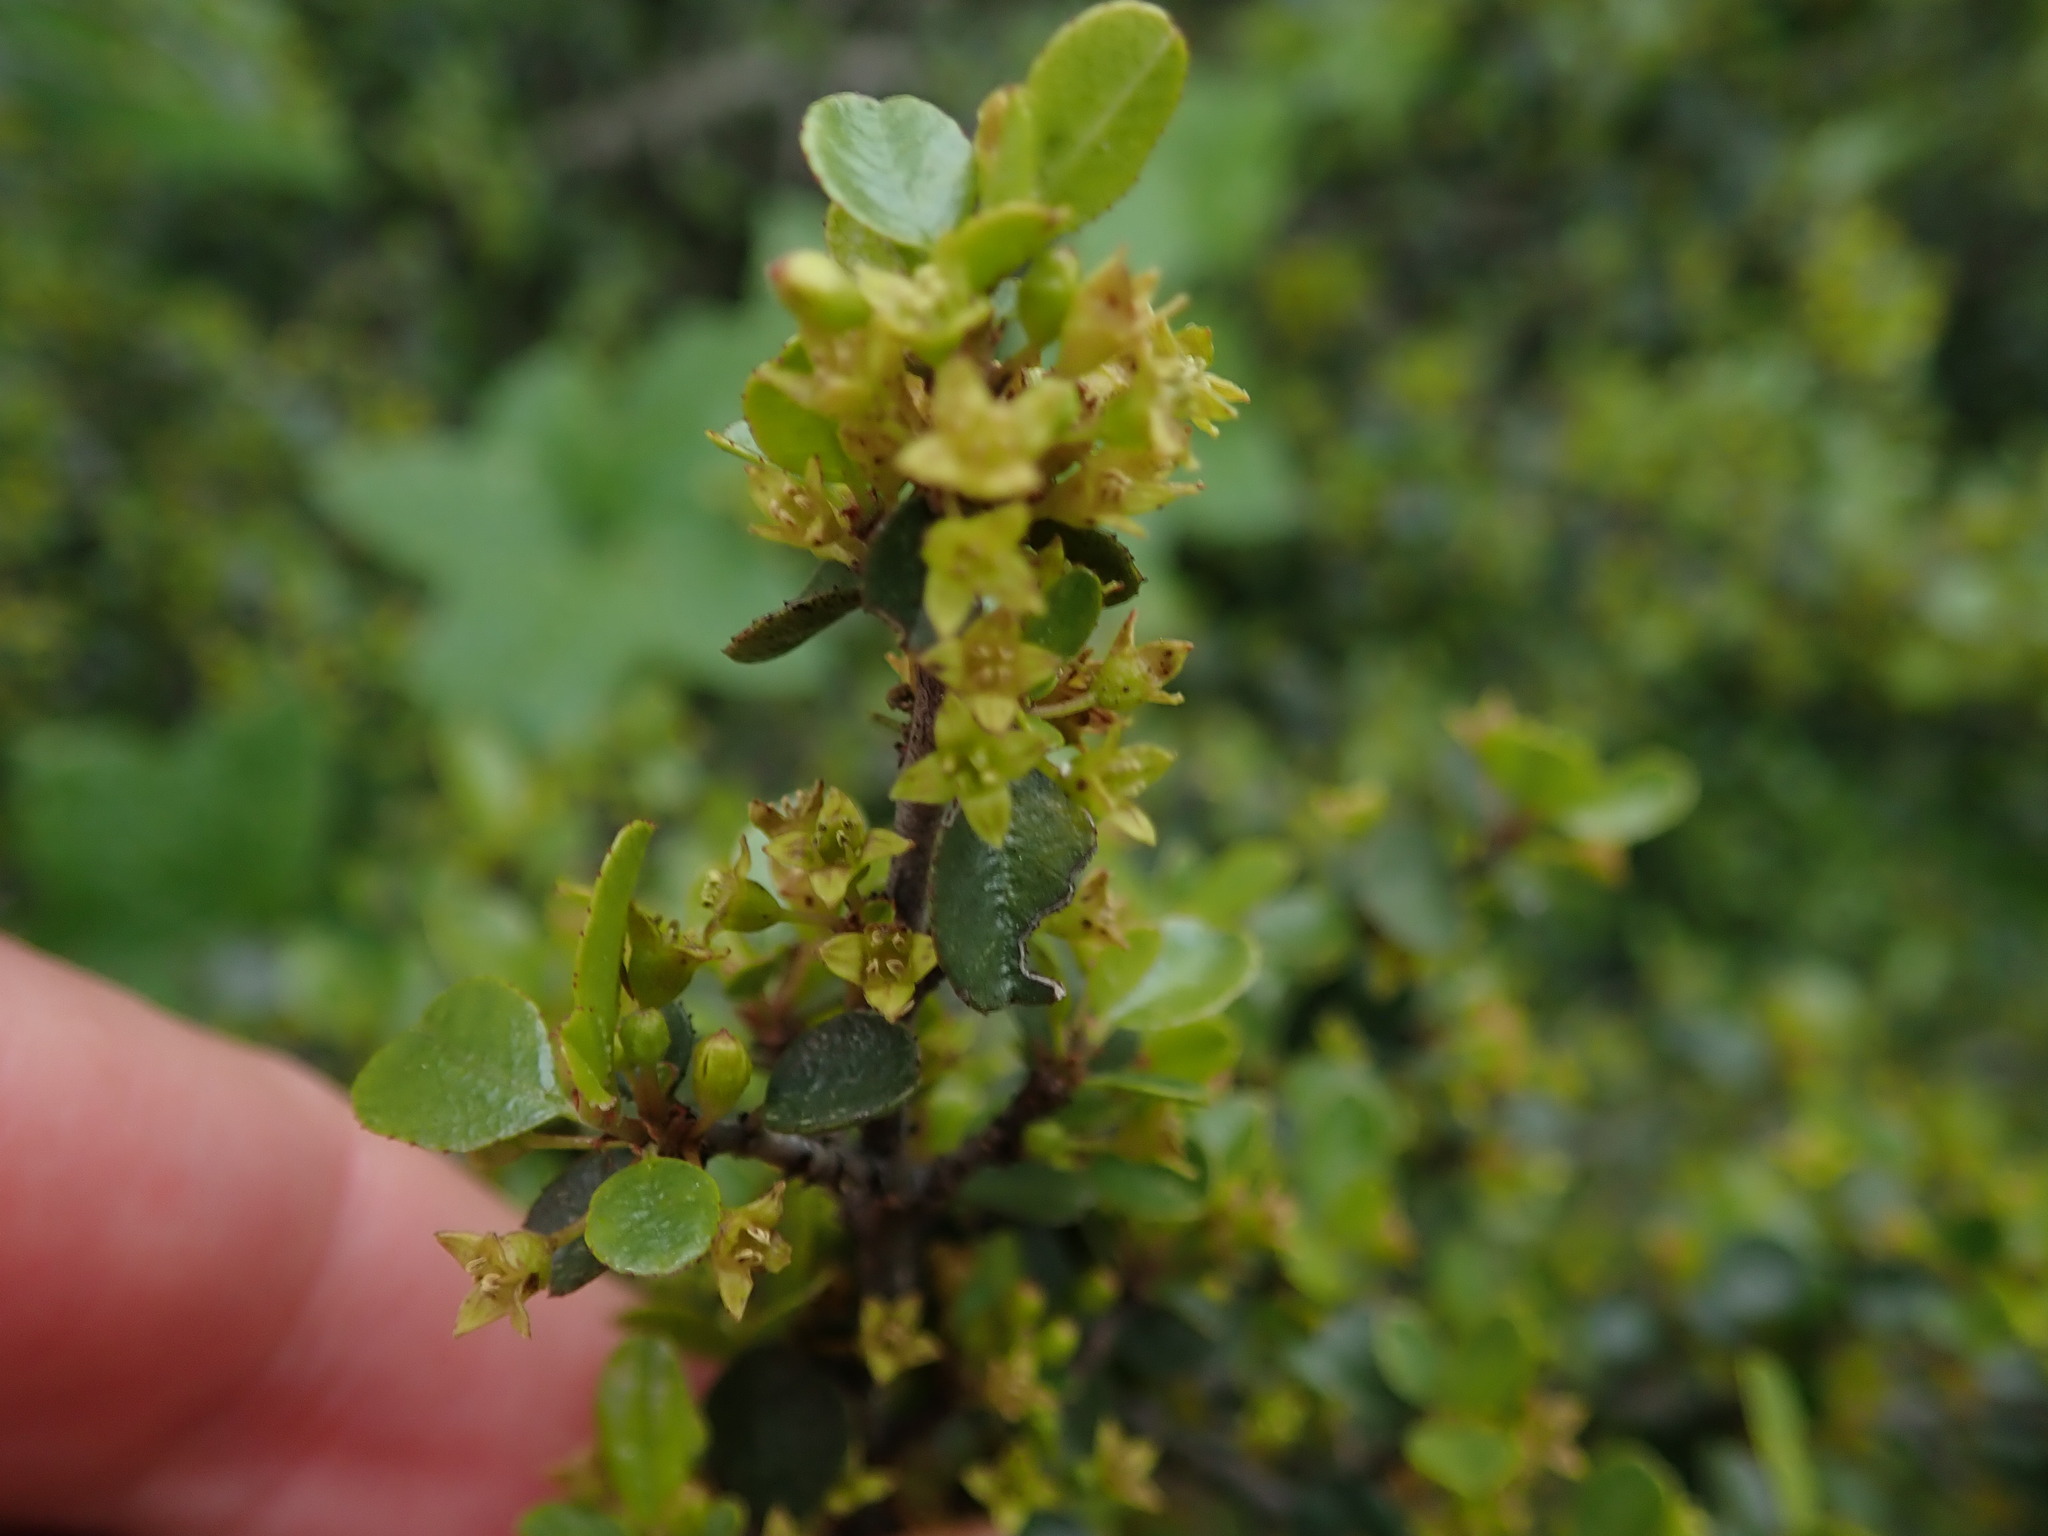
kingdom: Plantae
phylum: Tracheophyta
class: Magnoliopsida
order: Rosales
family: Rhamnaceae
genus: Endotropis
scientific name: Endotropis crocea
